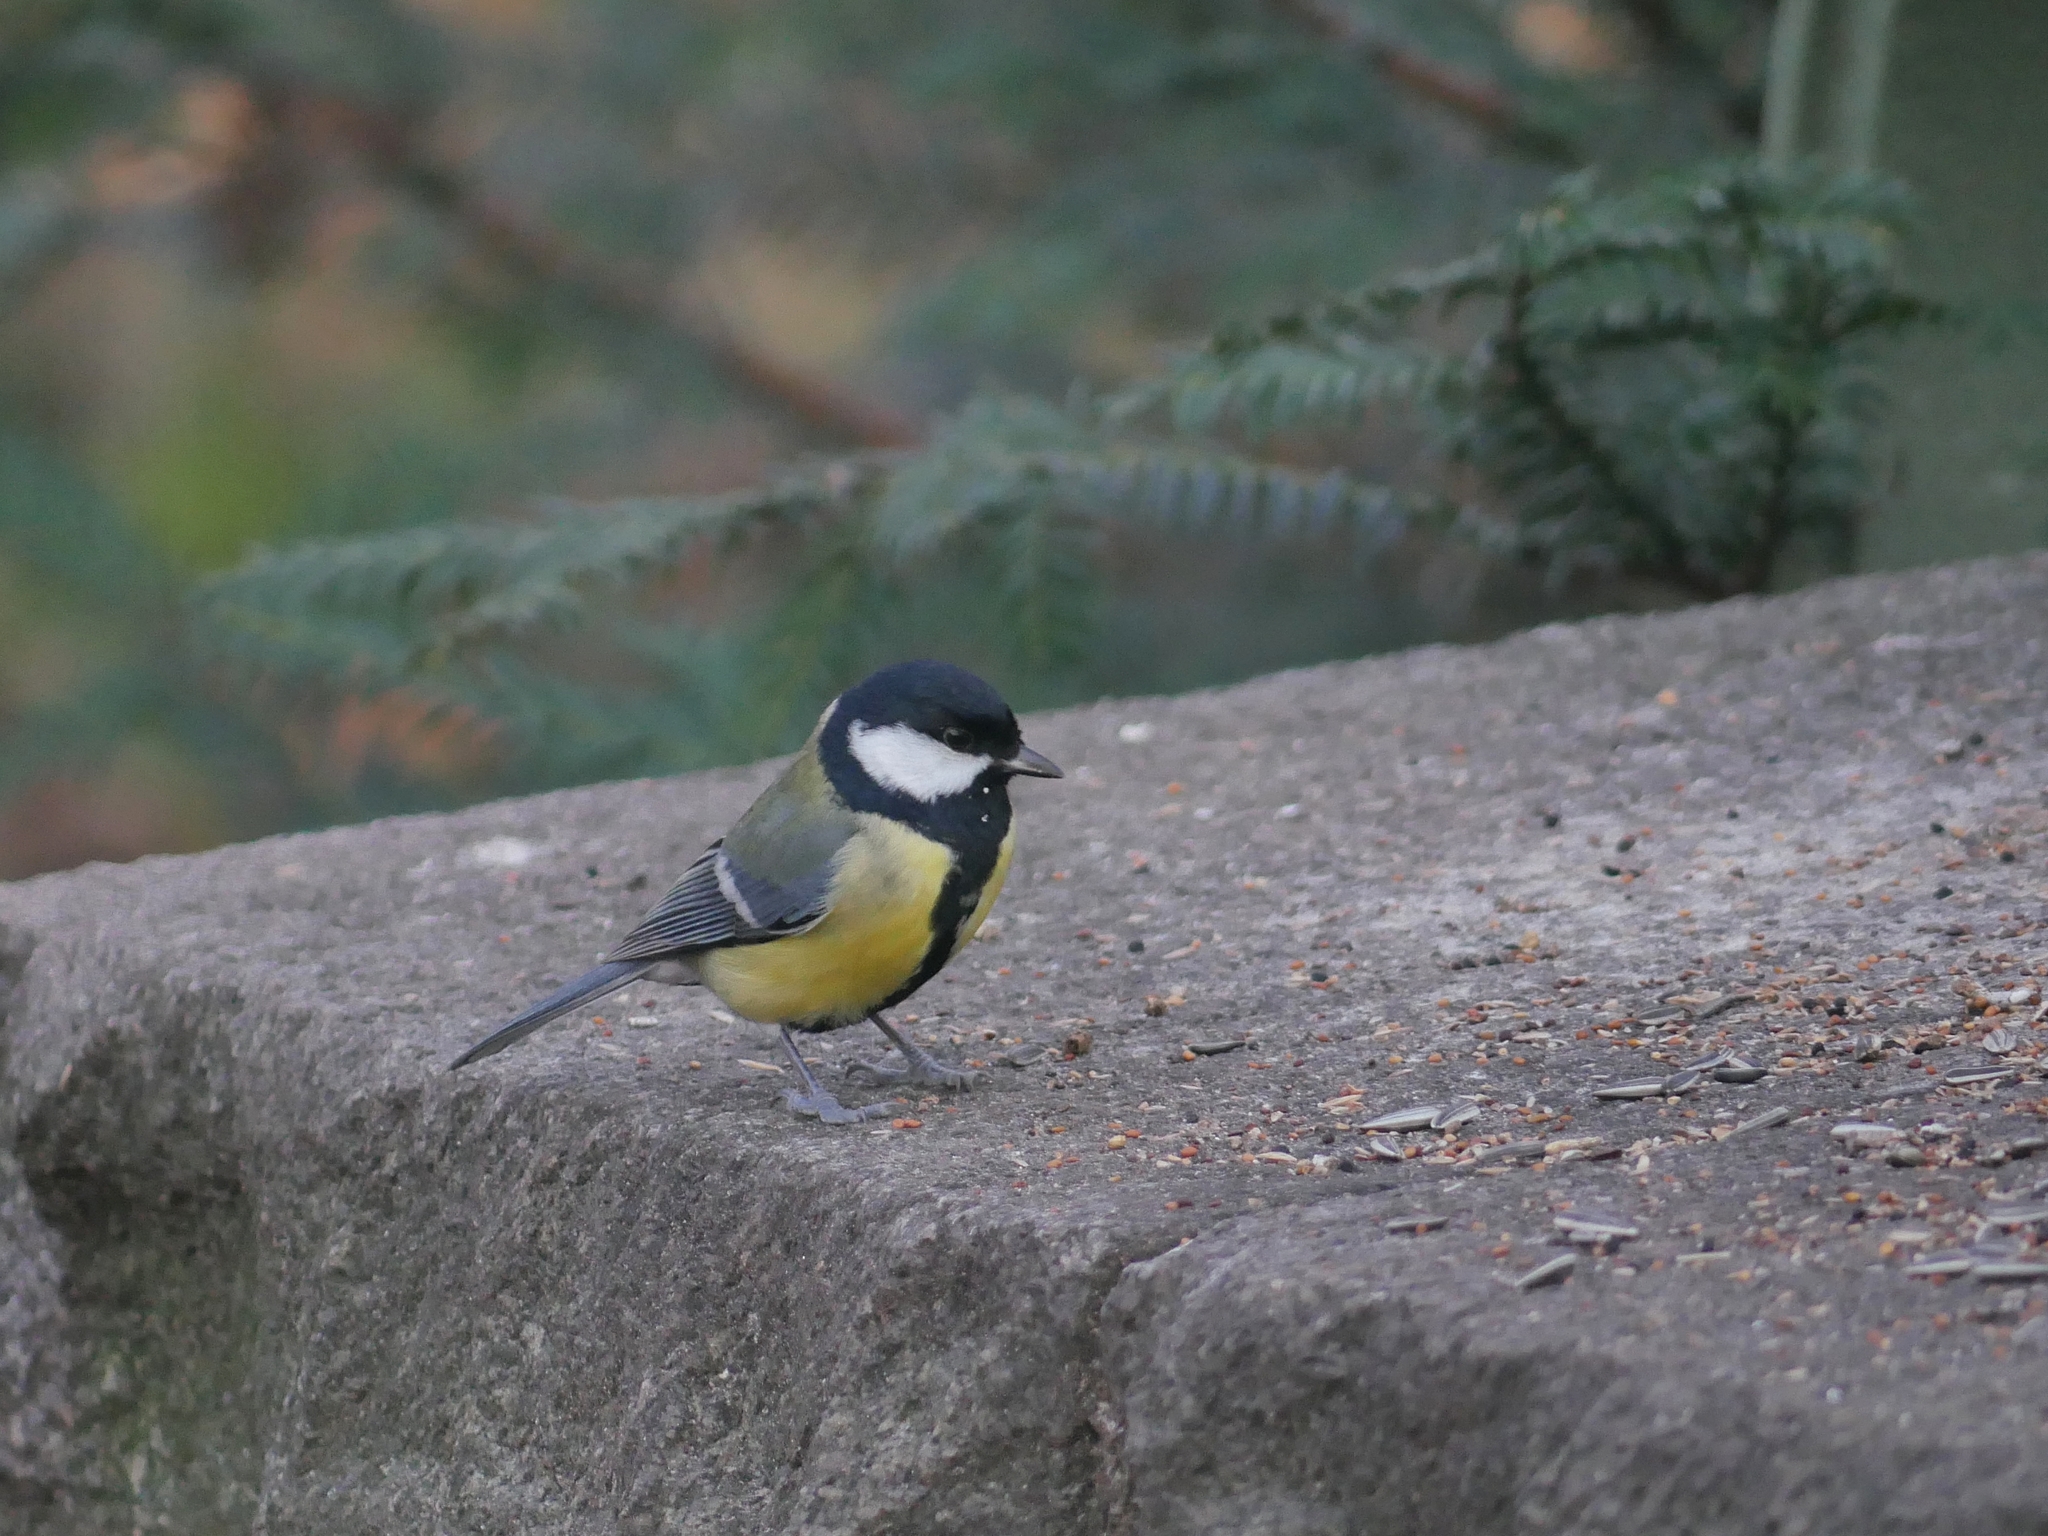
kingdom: Animalia
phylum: Chordata
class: Aves
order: Passeriformes
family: Paridae
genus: Parus
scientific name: Parus major
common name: Great tit
